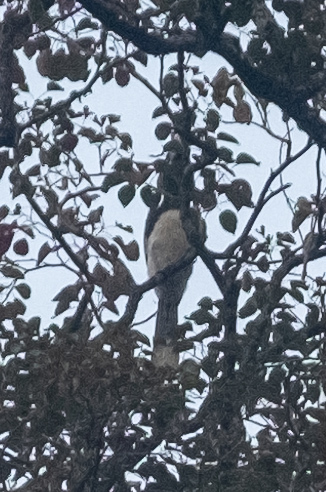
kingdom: Animalia
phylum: Chordata
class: Aves
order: Bucerotiformes
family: Bucerotidae
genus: Anthracoceros
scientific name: Anthracoceros albirostris
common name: Oriental pied-hornbill
